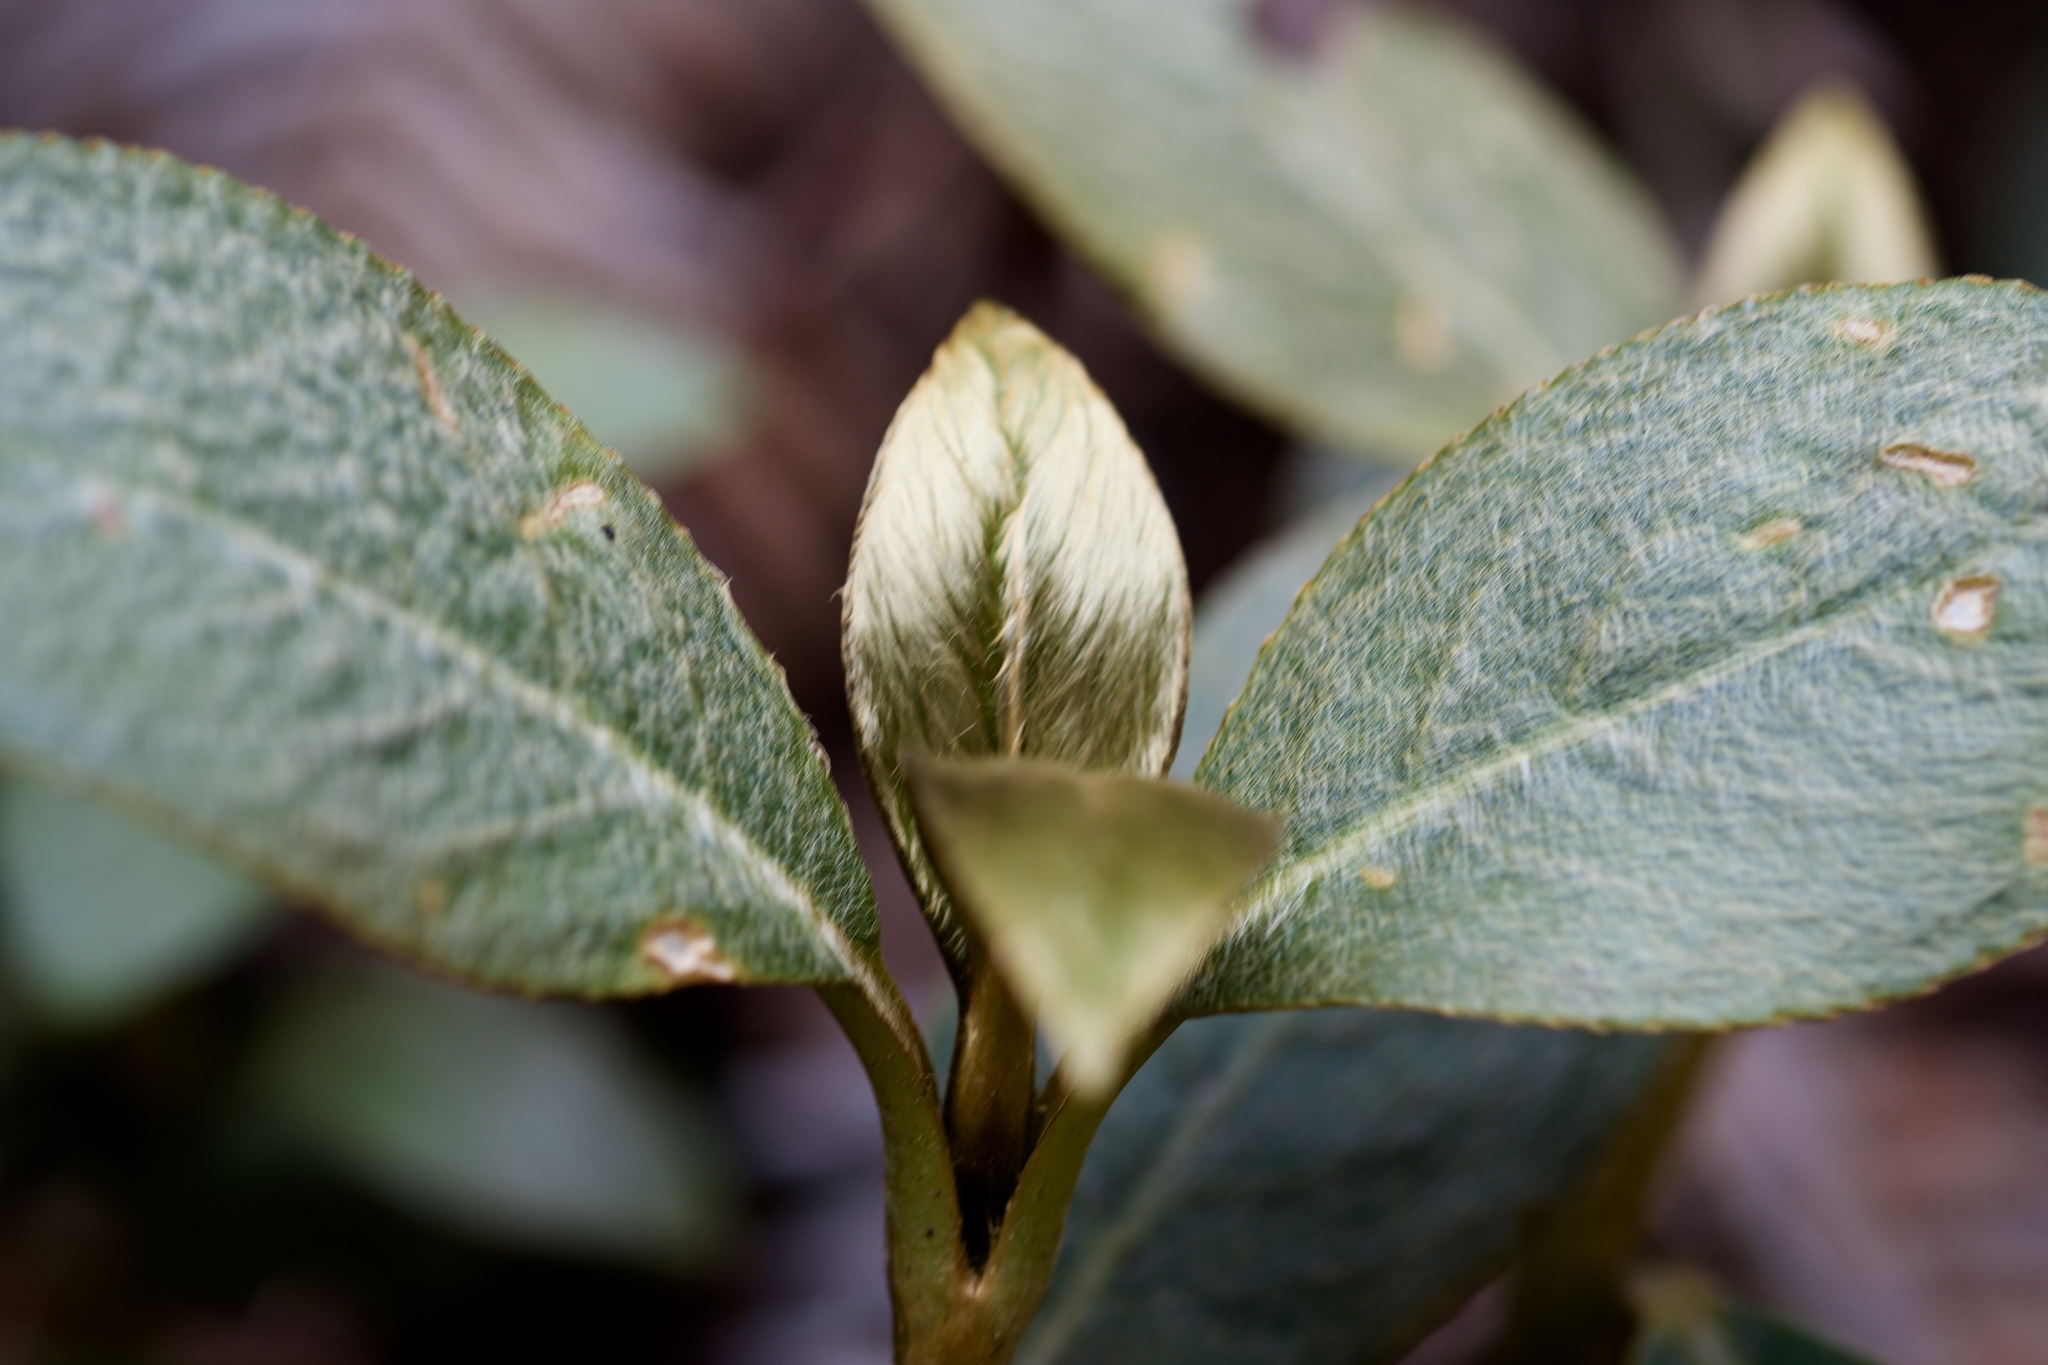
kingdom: Plantae
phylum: Tracheophyta
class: Magnoliopsida
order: Lamiales
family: Gesneriaceae
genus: Cyrtandra
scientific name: Cyrtandra clarkei
